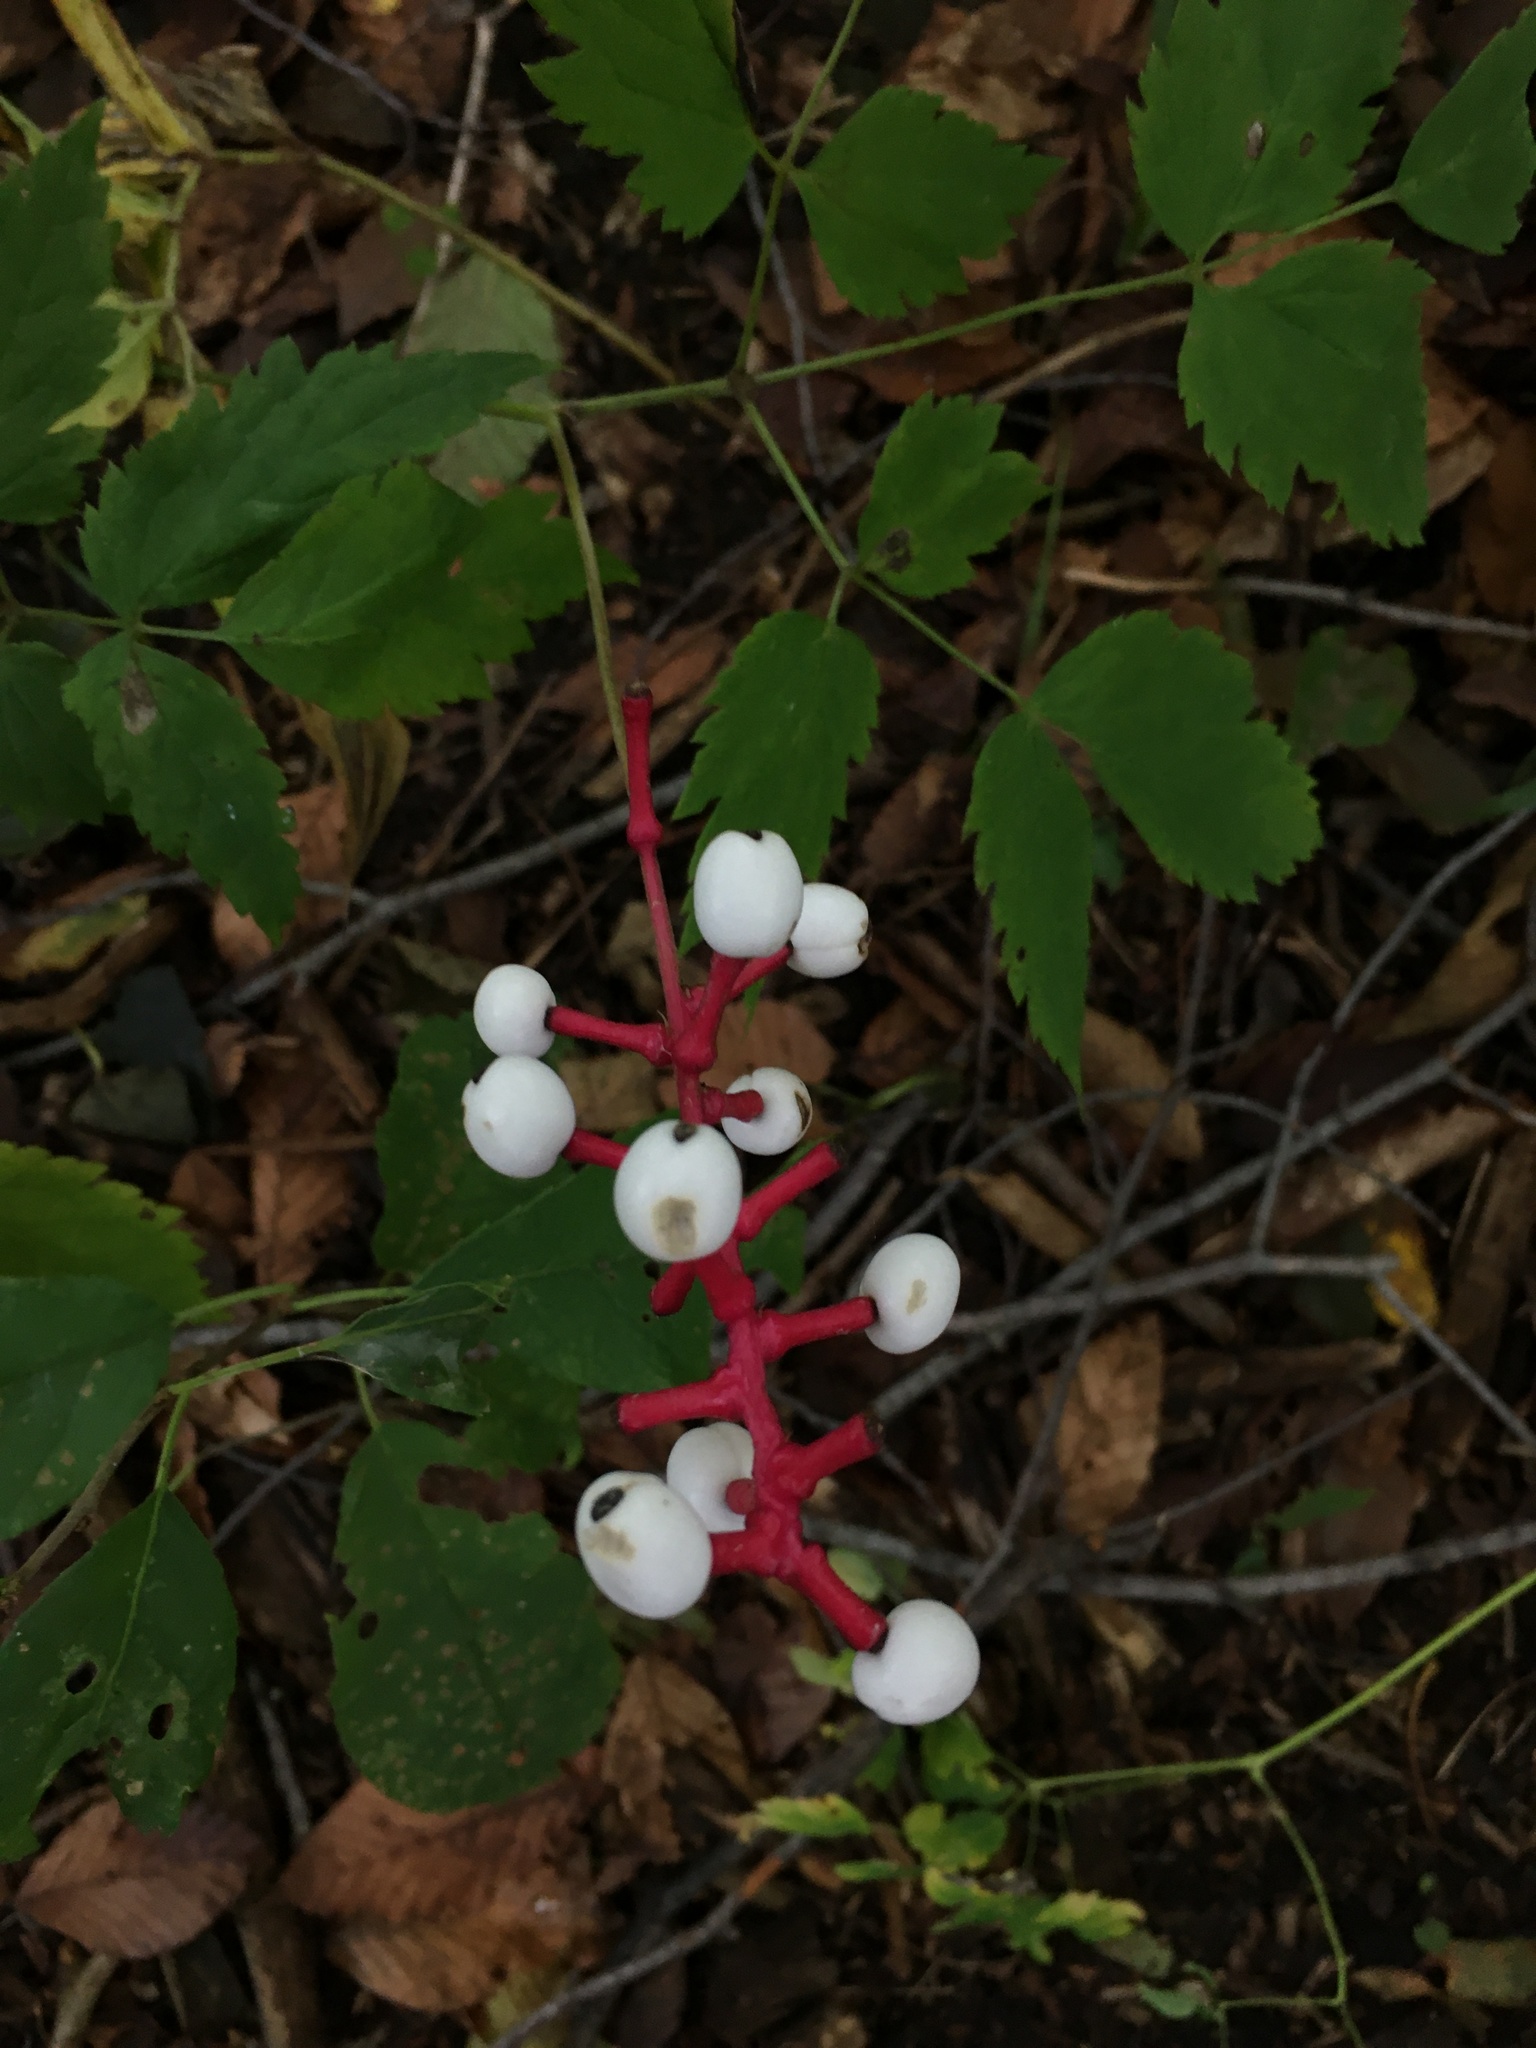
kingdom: Plantae
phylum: Tracheophyta
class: Magnoliopsida
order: Ranunculales
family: Ranunculaceae
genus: Actaea
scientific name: Actaea pachypoda
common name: Doll's-eyes
